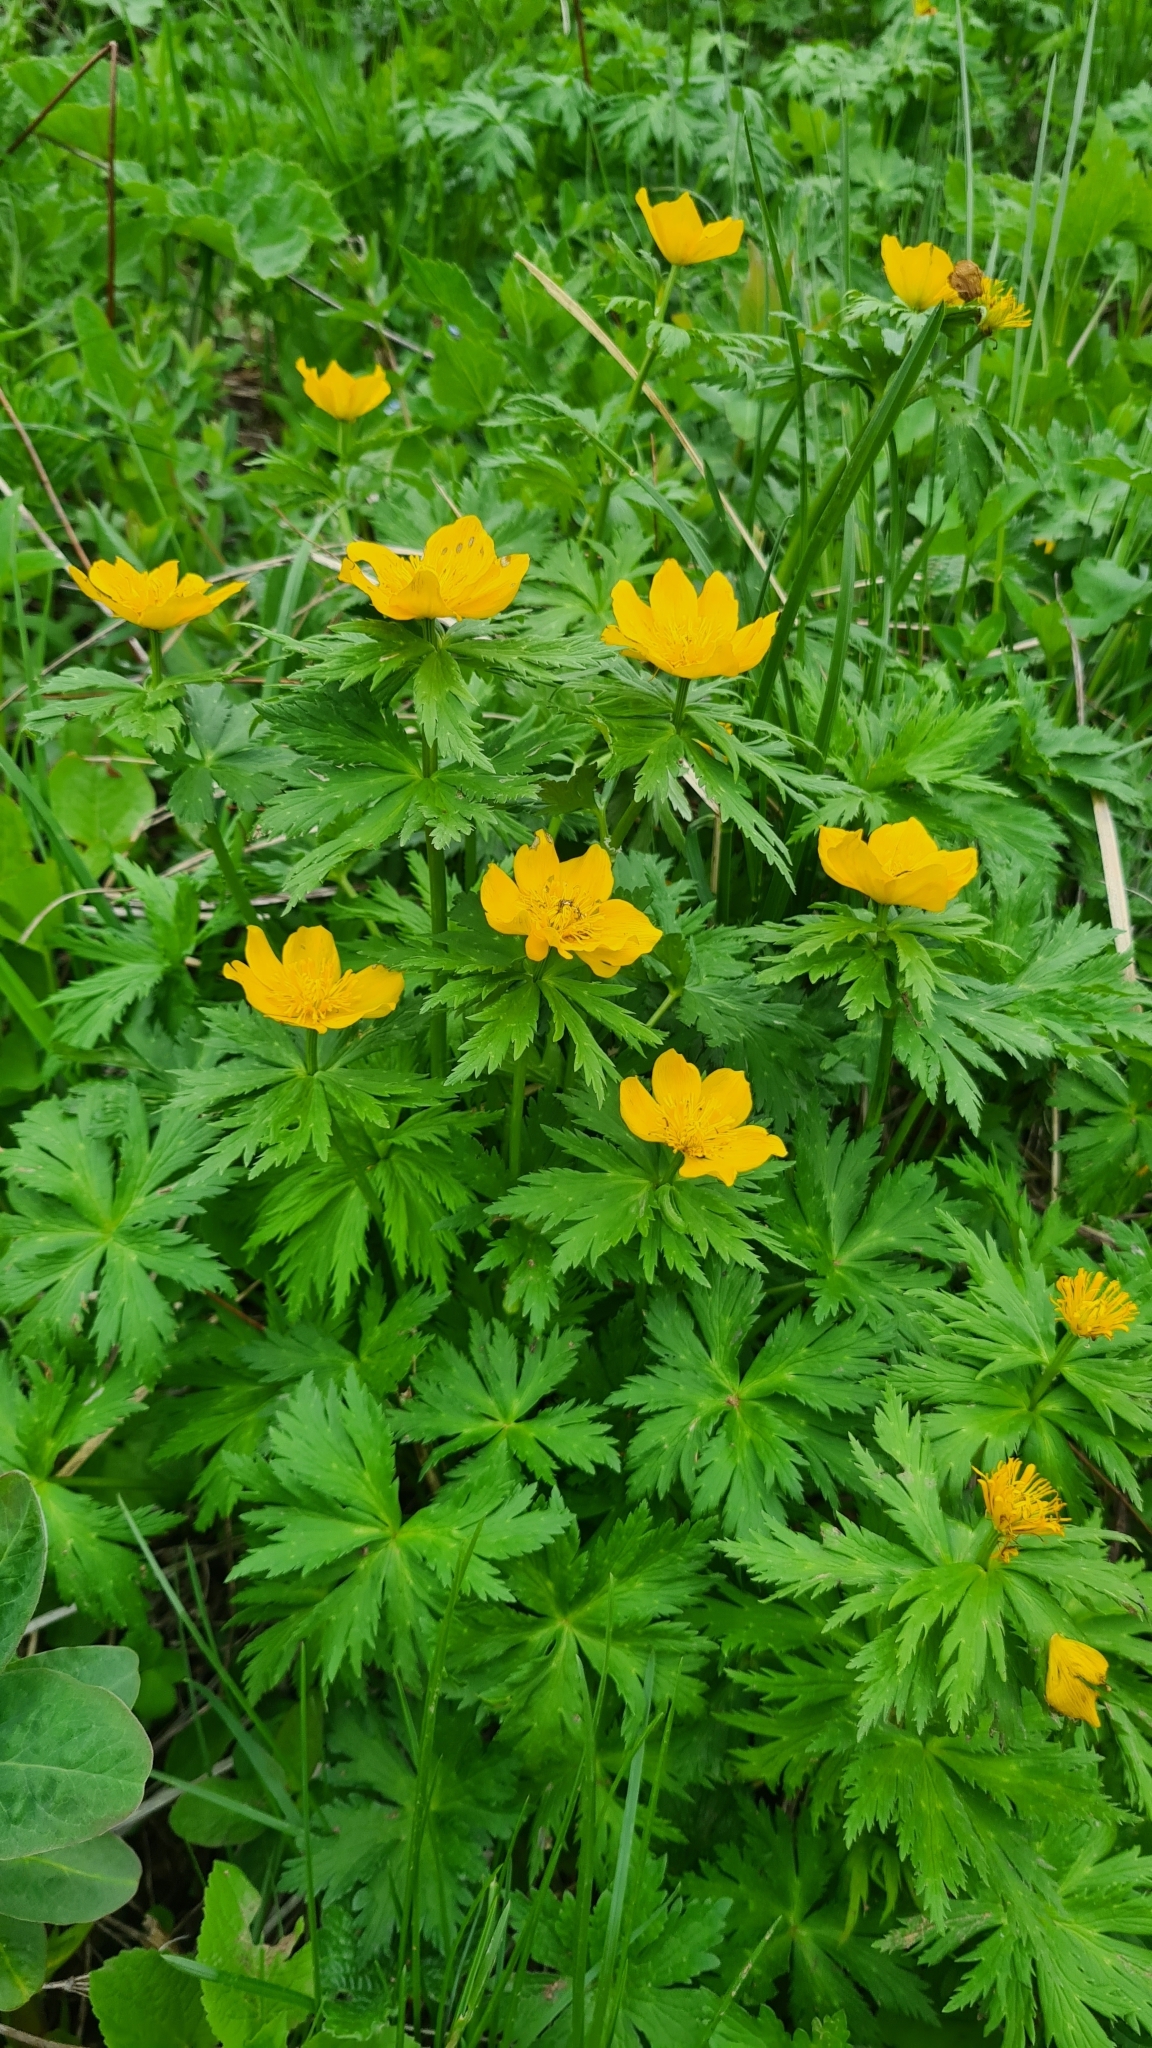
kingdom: Plantae
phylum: Tracheophyta
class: Magnoliopsida
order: Ranunculales
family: Ranunculaceae
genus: Trollius
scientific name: Trollius ranunculinus
